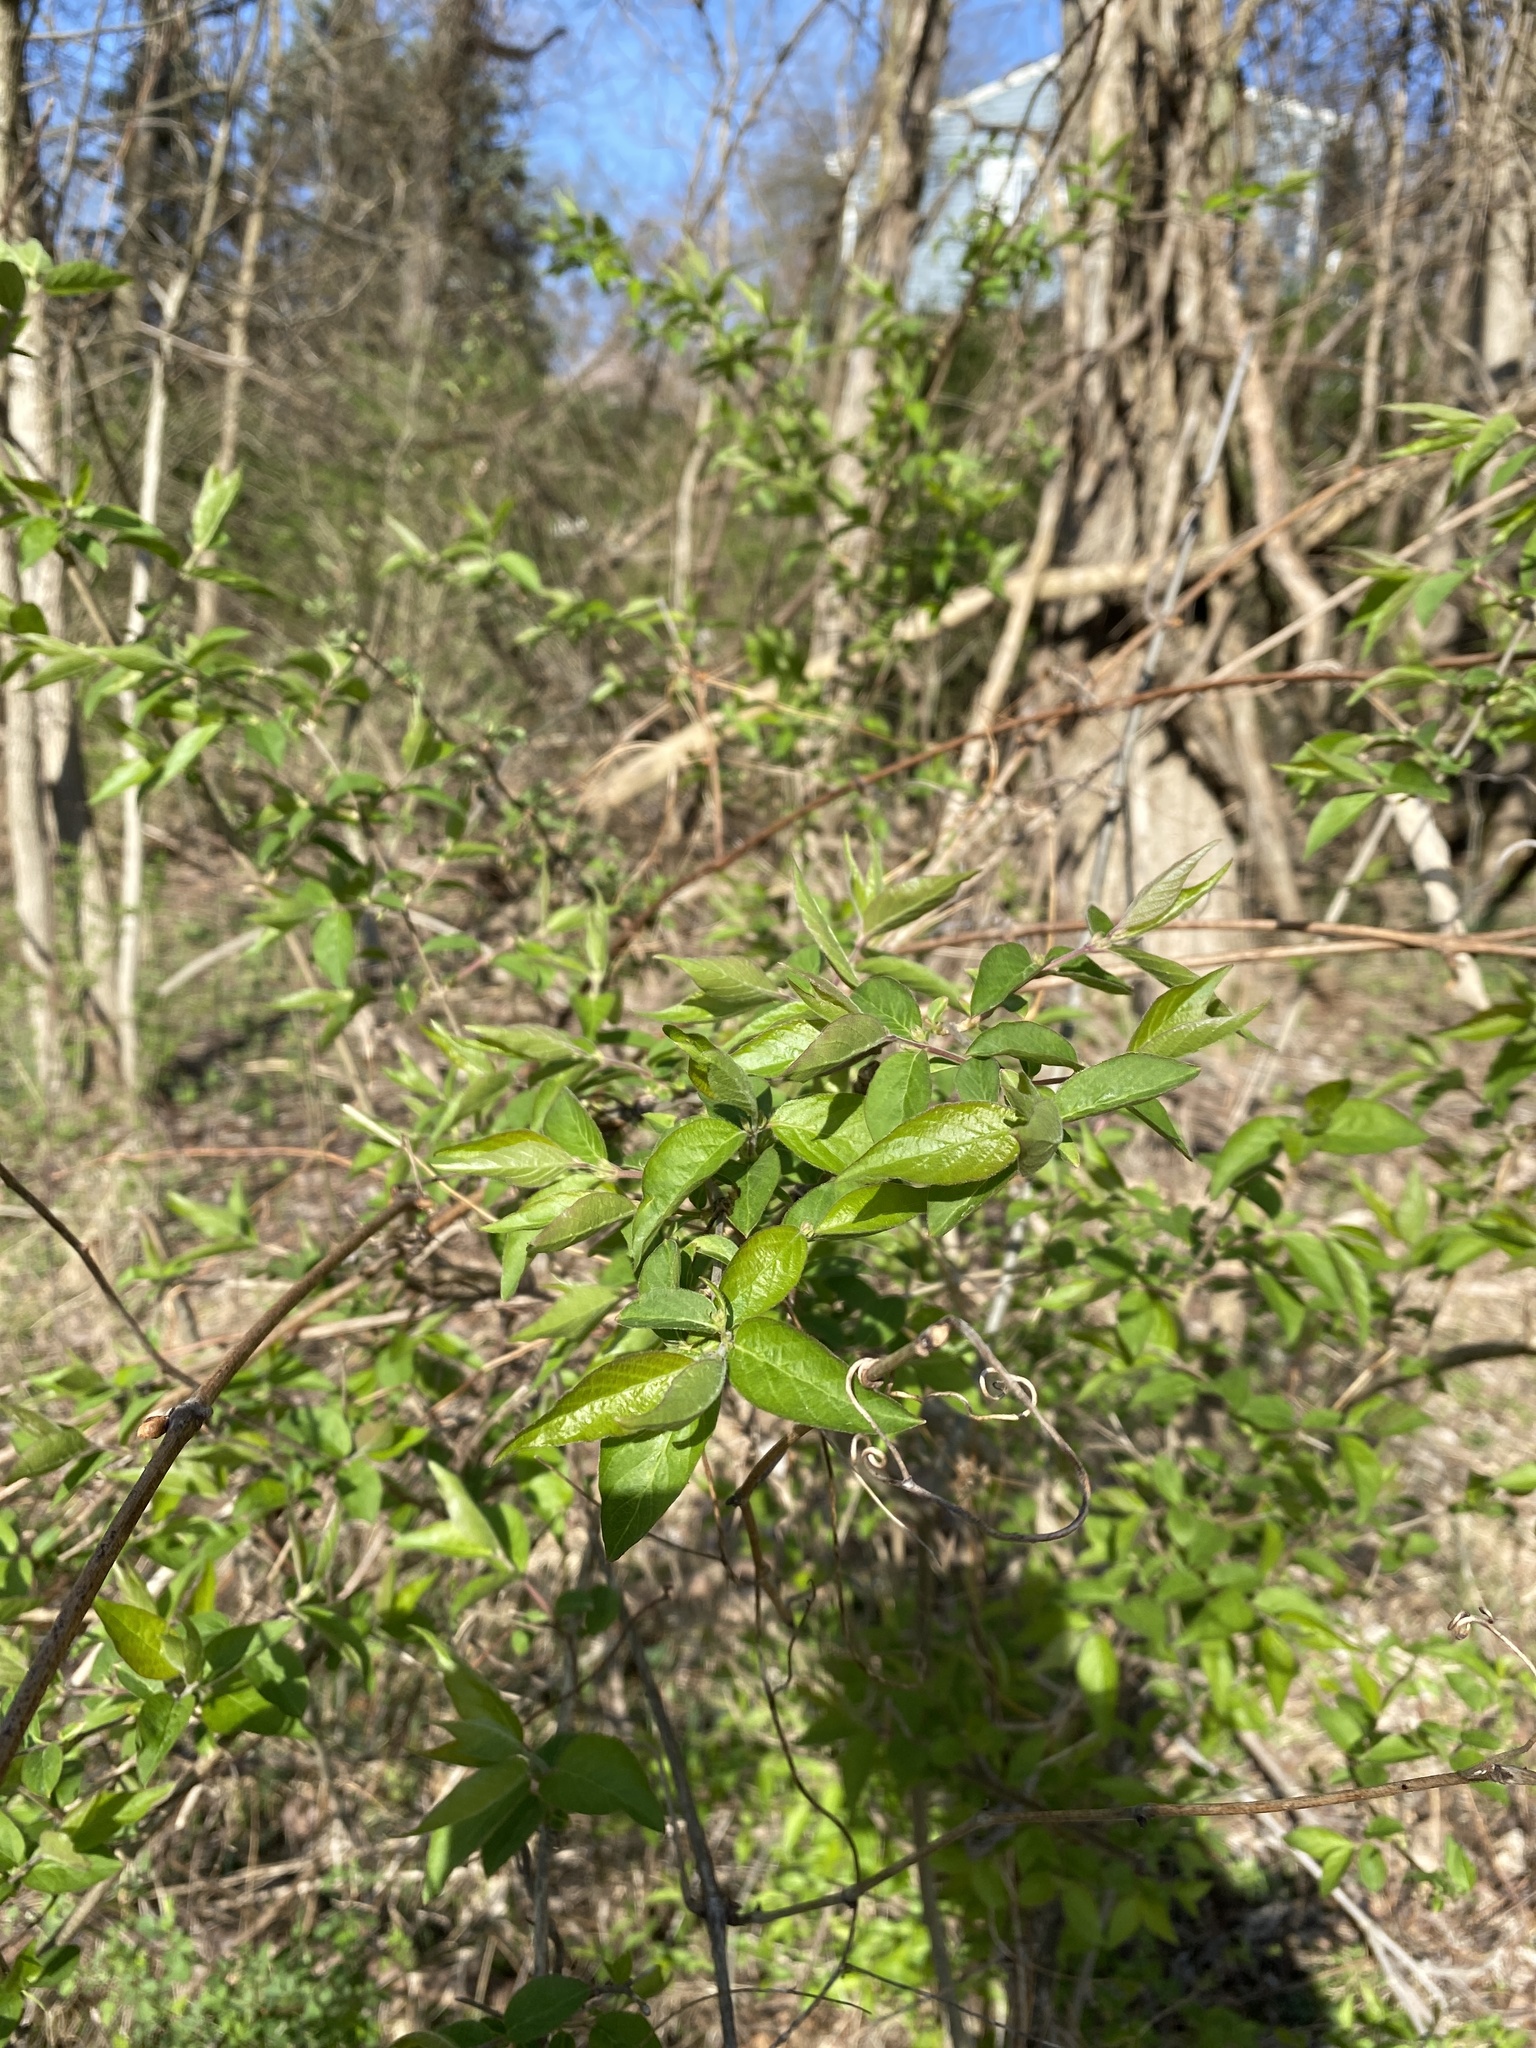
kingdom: Plantae
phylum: Tracheophyta
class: Magnoliopsida
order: Dipsacales
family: Caprifoliaceae
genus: Lonicera
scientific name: Lonicera maackii
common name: Amur honeysuckle
